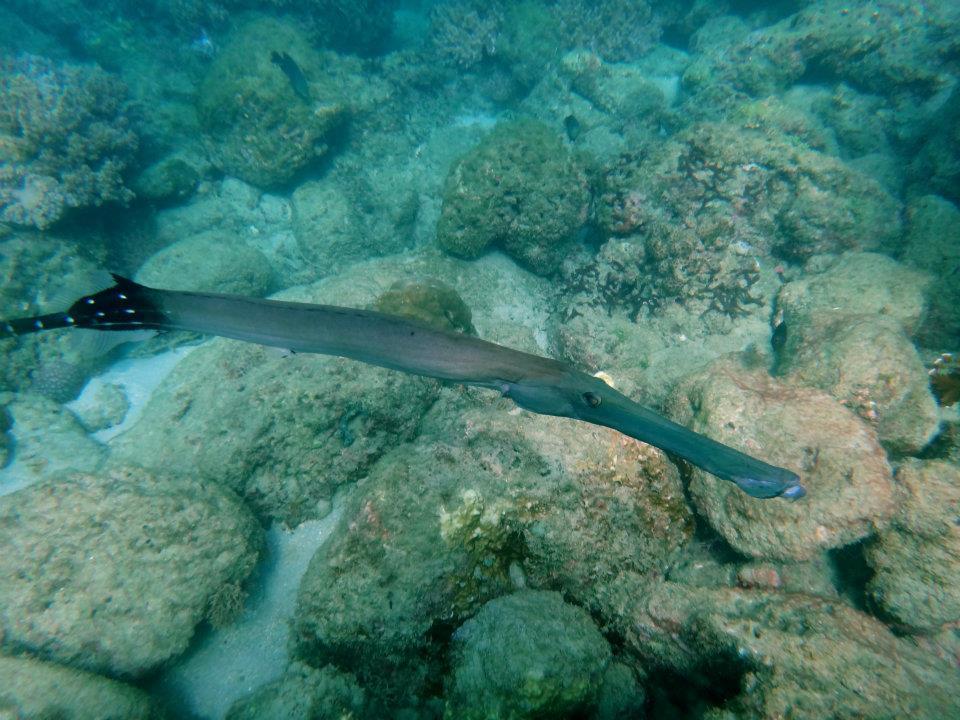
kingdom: Animalia
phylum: Chordata
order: Syngnathiformes
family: Aulostomidae
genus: Aulostomus
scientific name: Aulostomus chinensis
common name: Chinese trumpetfish
